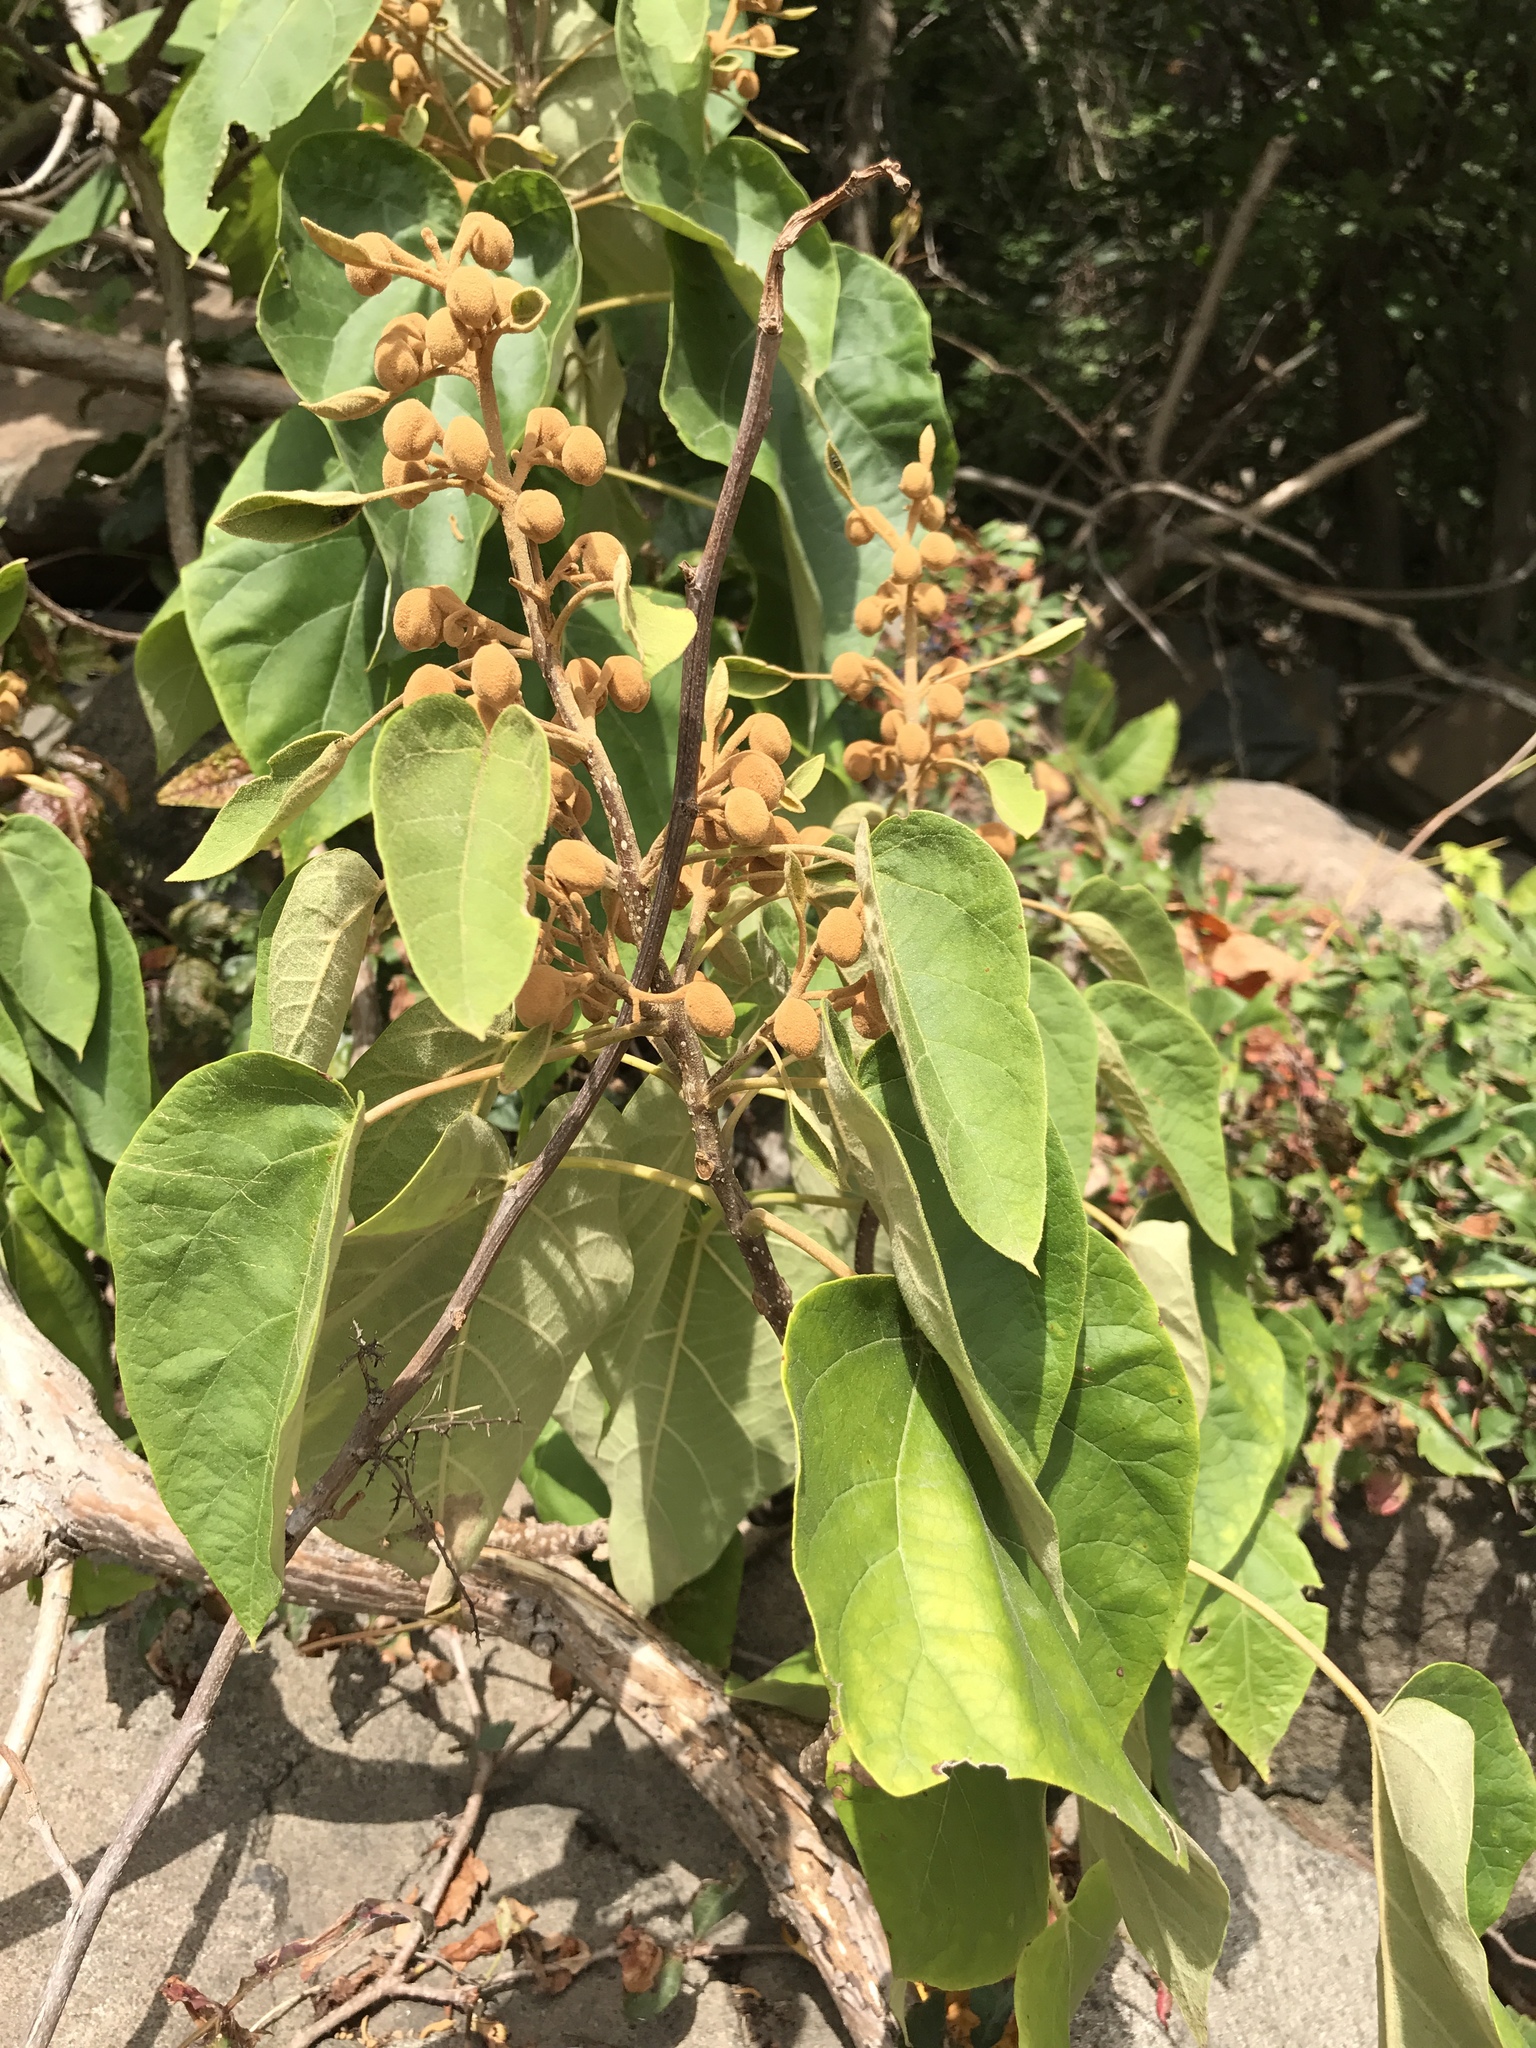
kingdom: Plantae
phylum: Tracheophyta
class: Magnoliopsida
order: Lamiales
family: Paulowniaceae
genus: Paulownia
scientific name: Paulownia tomentosa
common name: Foxglove-tree
